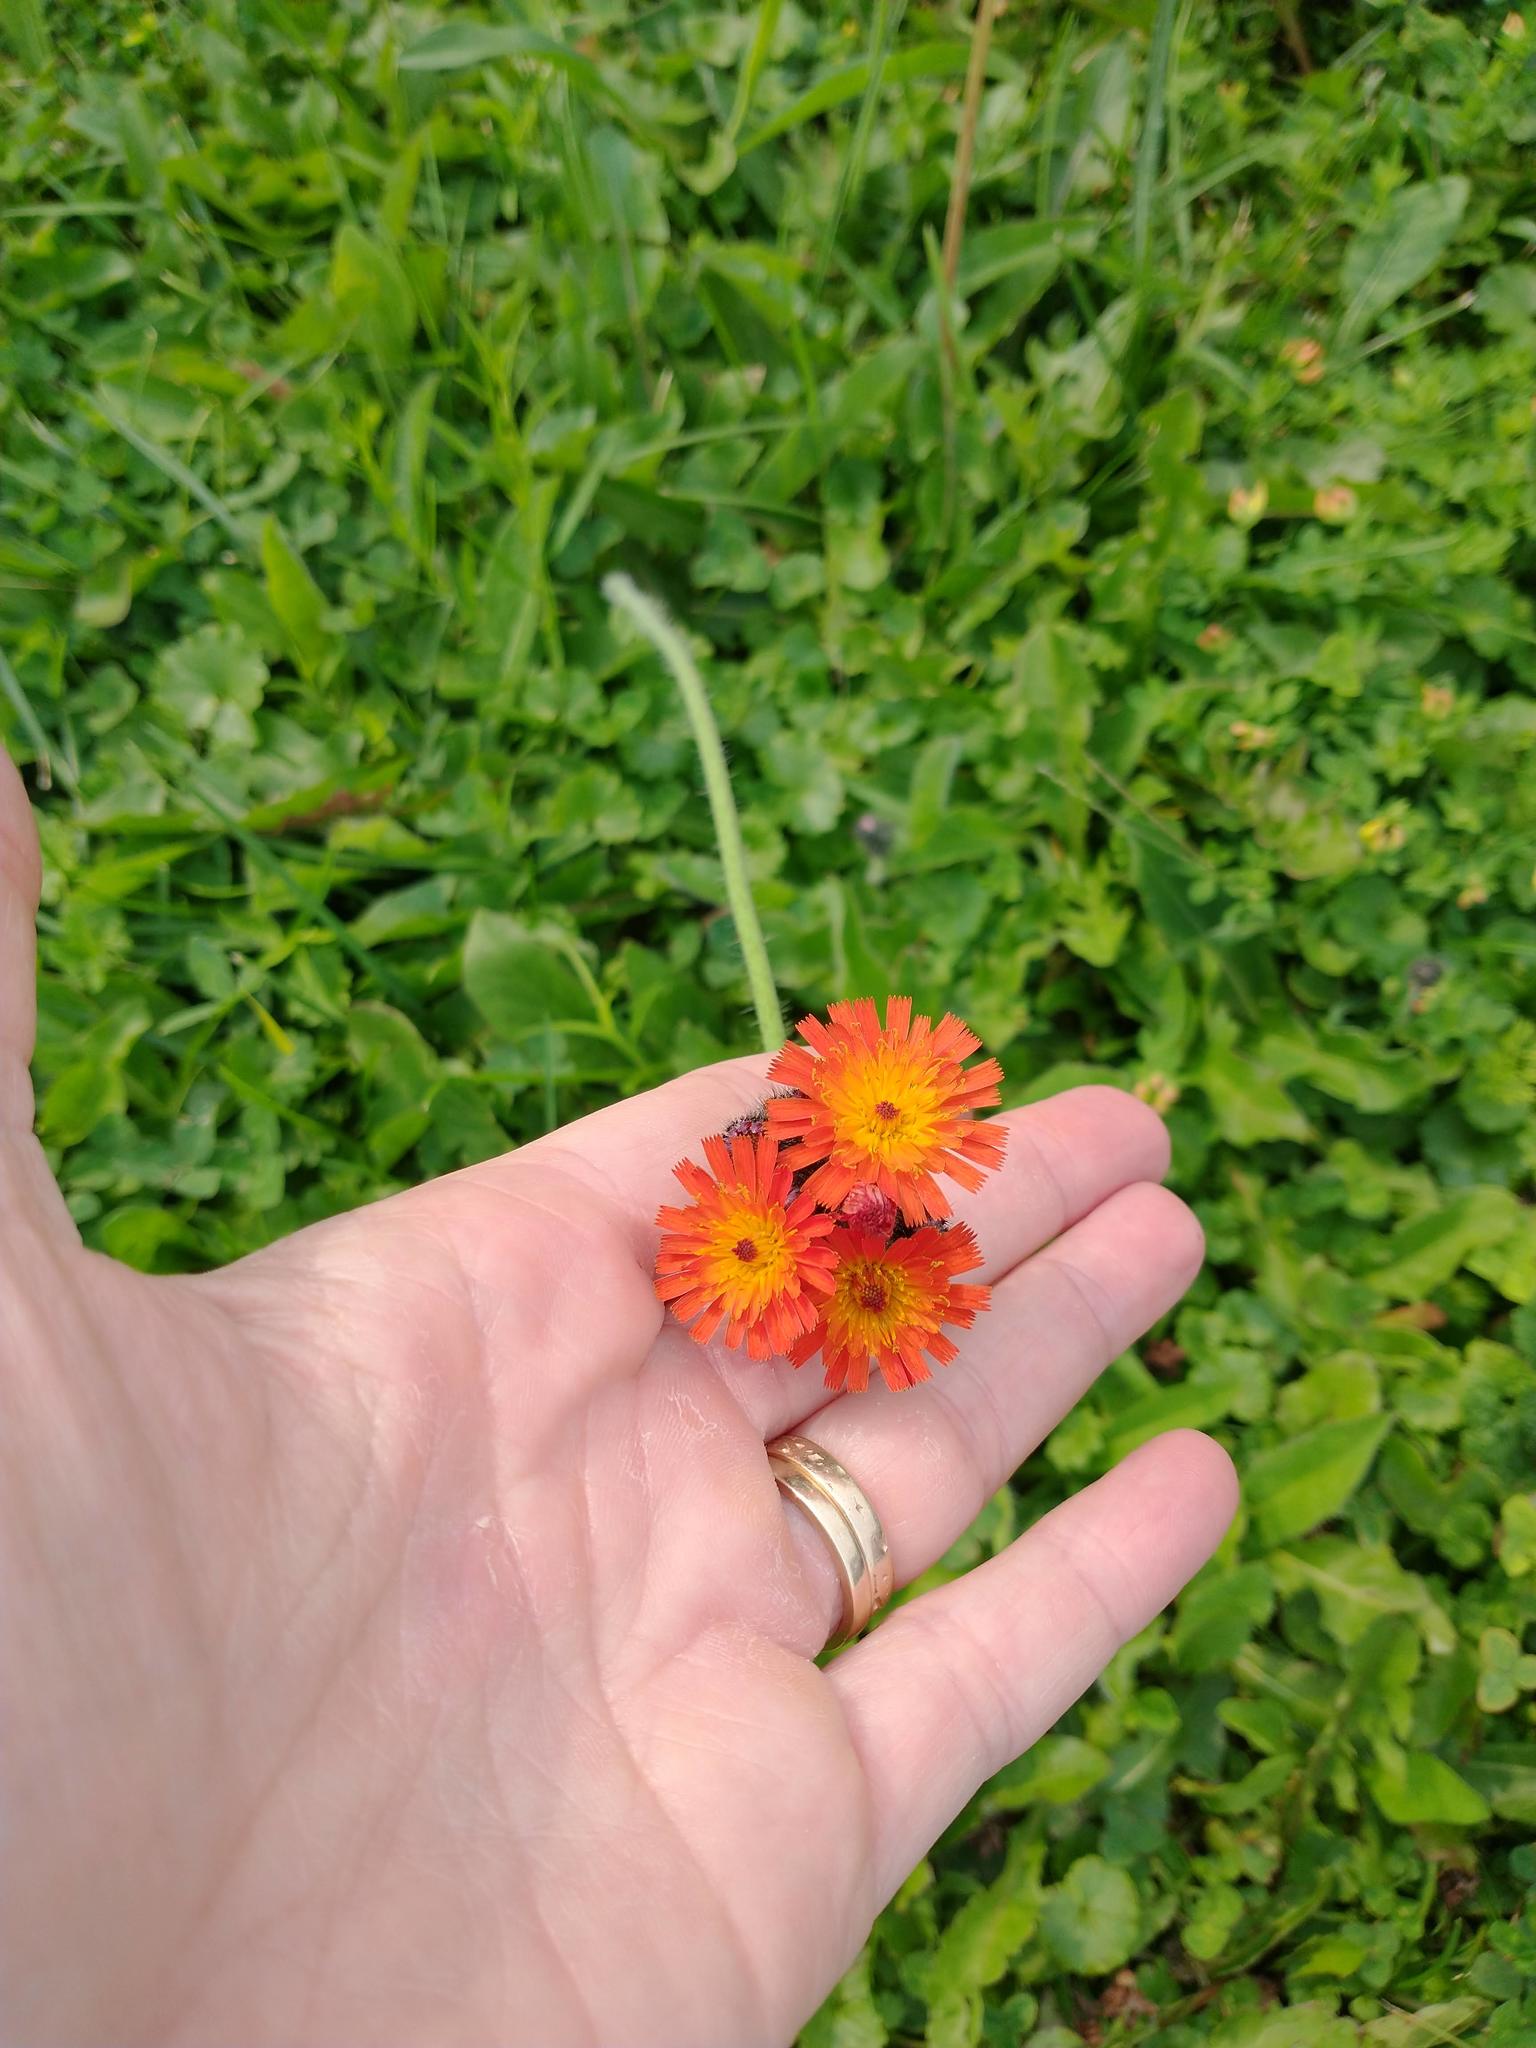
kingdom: Plantae
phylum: Tracheophyta
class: Magnoliopsida
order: Asterales
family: Asteraceae
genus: Pilosella
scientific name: Pilosella aurantiaca
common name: Fox-and-cubs
